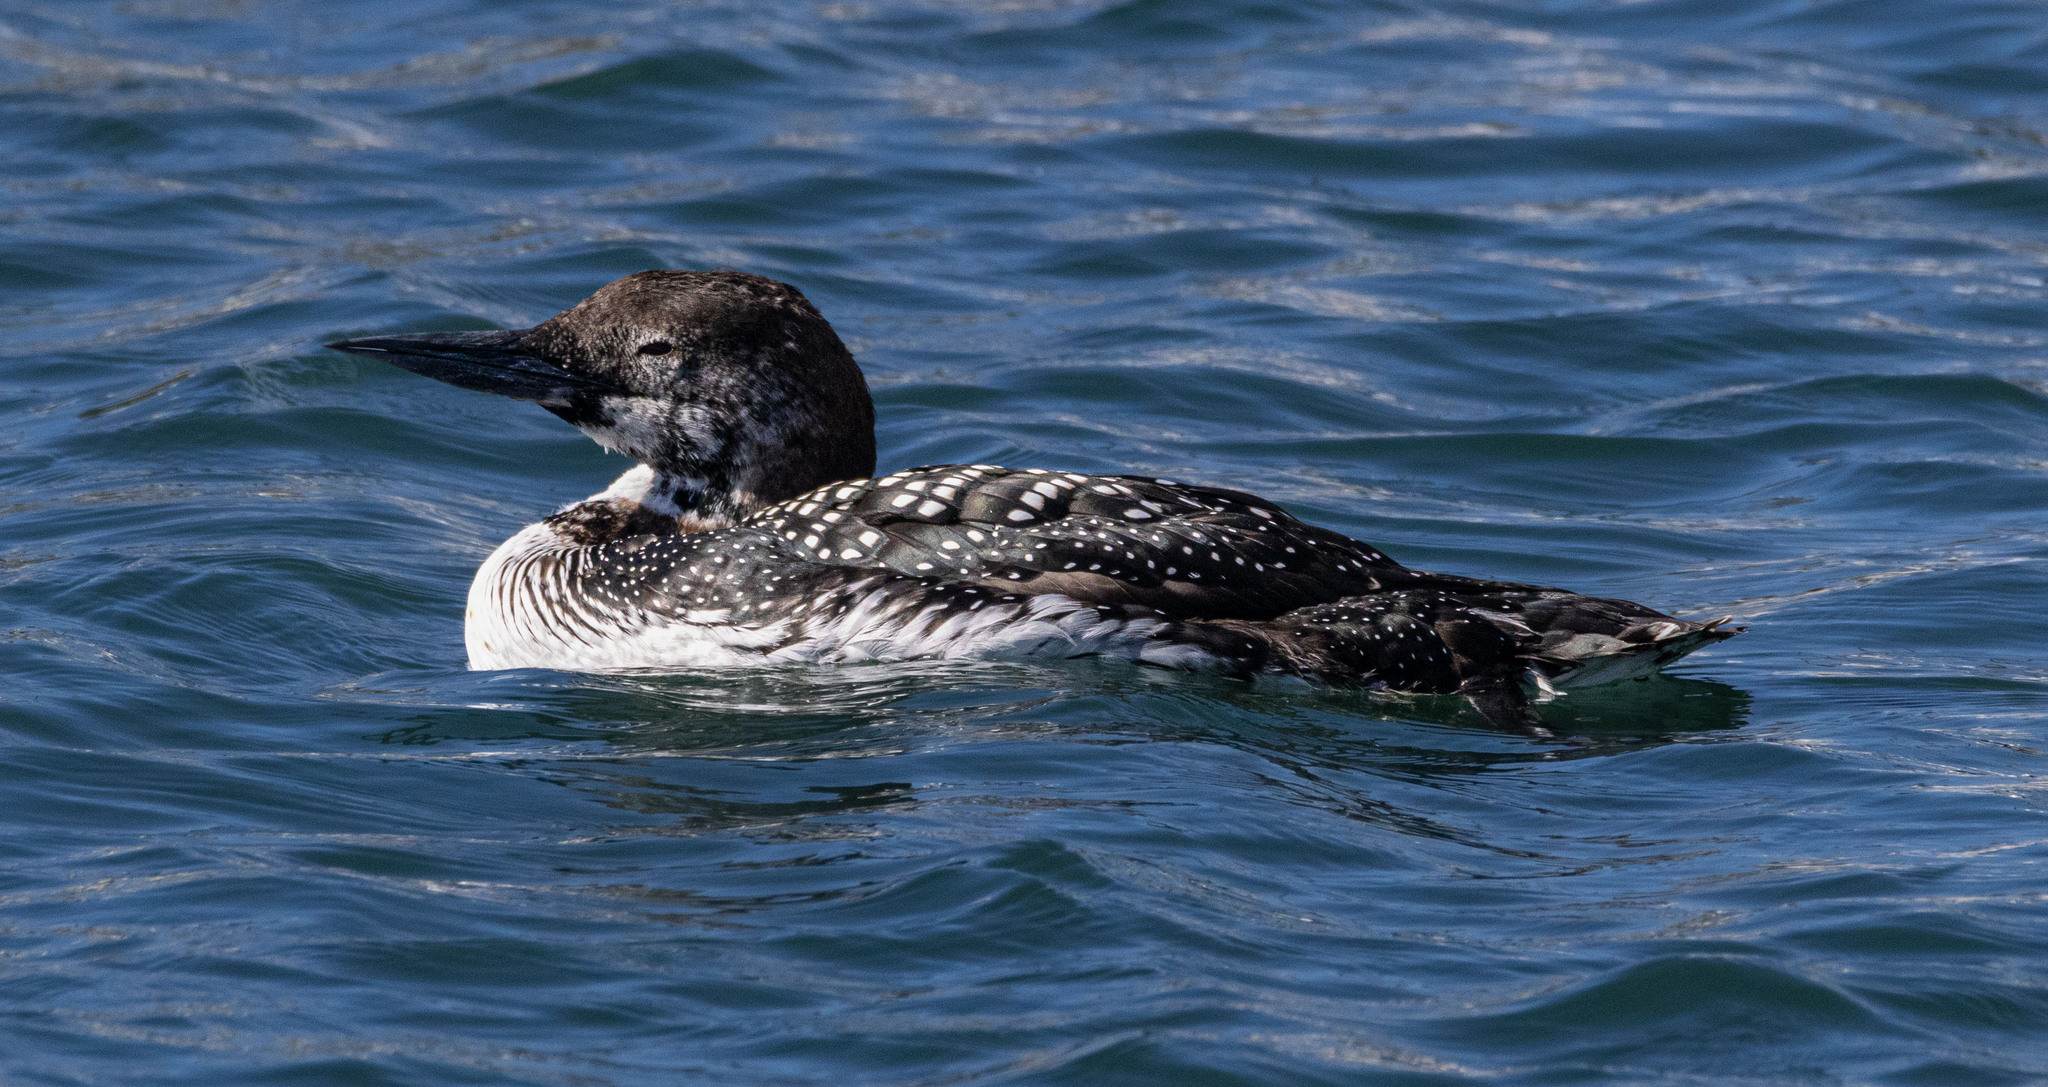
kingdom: Animalia
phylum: Chordata
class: Aves
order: Gaviiformes
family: Gaviidae
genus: Gavia
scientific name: Gavia immer
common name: Common loon
